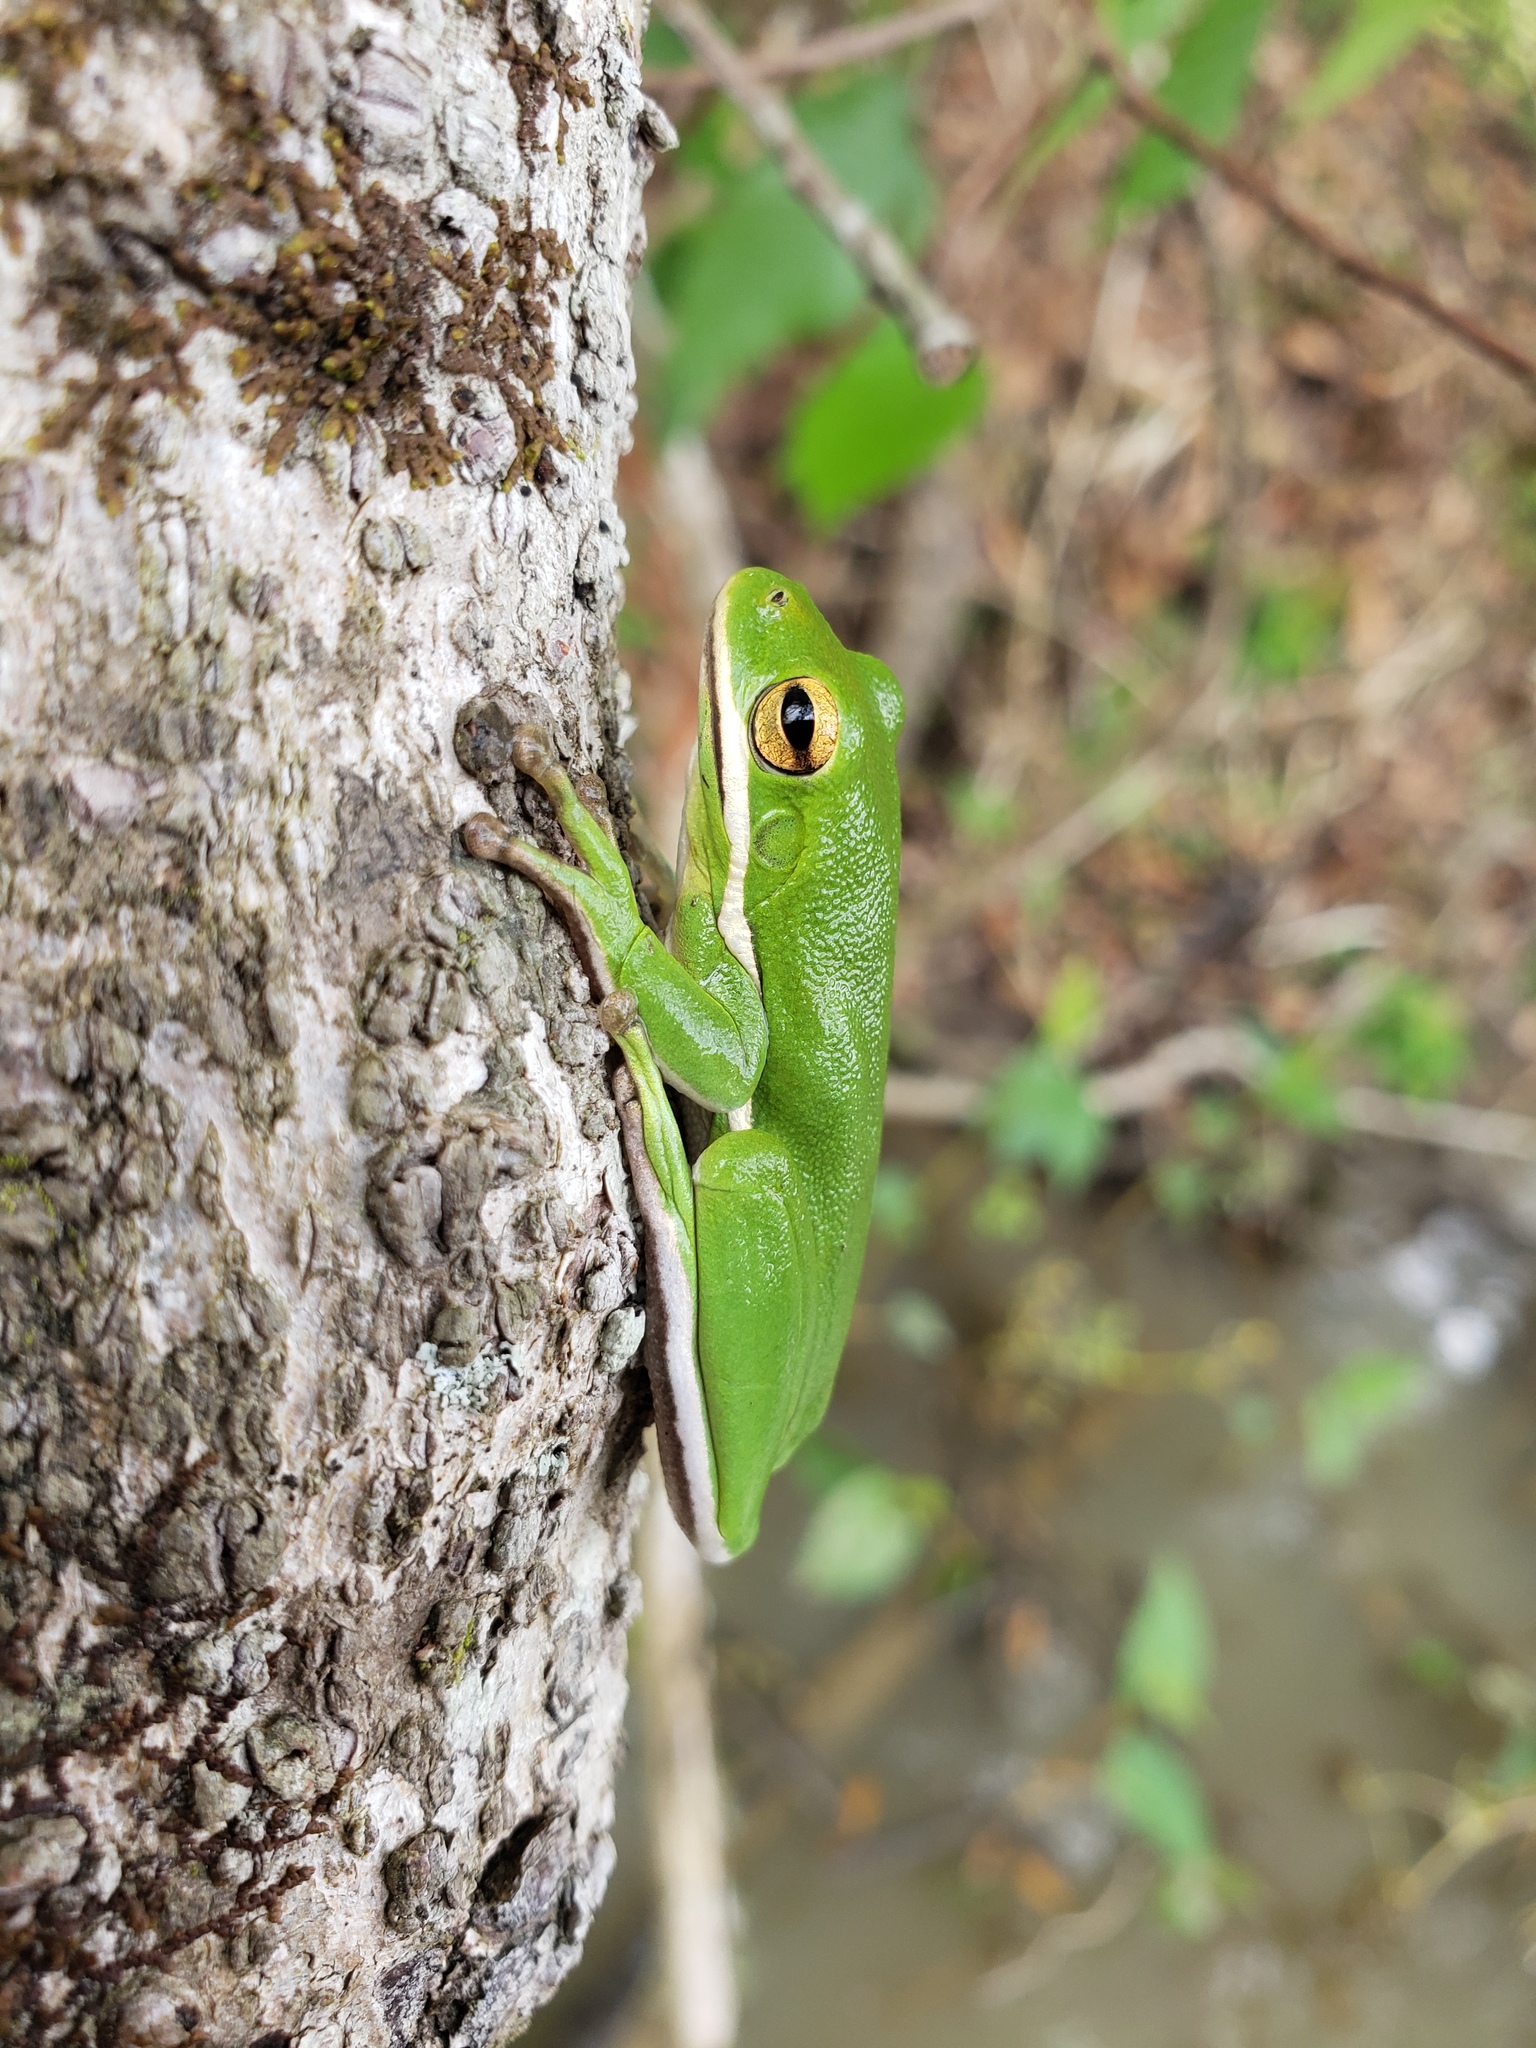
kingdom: Animalia
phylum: Chordata
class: Amphibia
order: Anura
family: Hylidae
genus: Dryophytes
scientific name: Dryophytes cinereus
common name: Green treefrog
